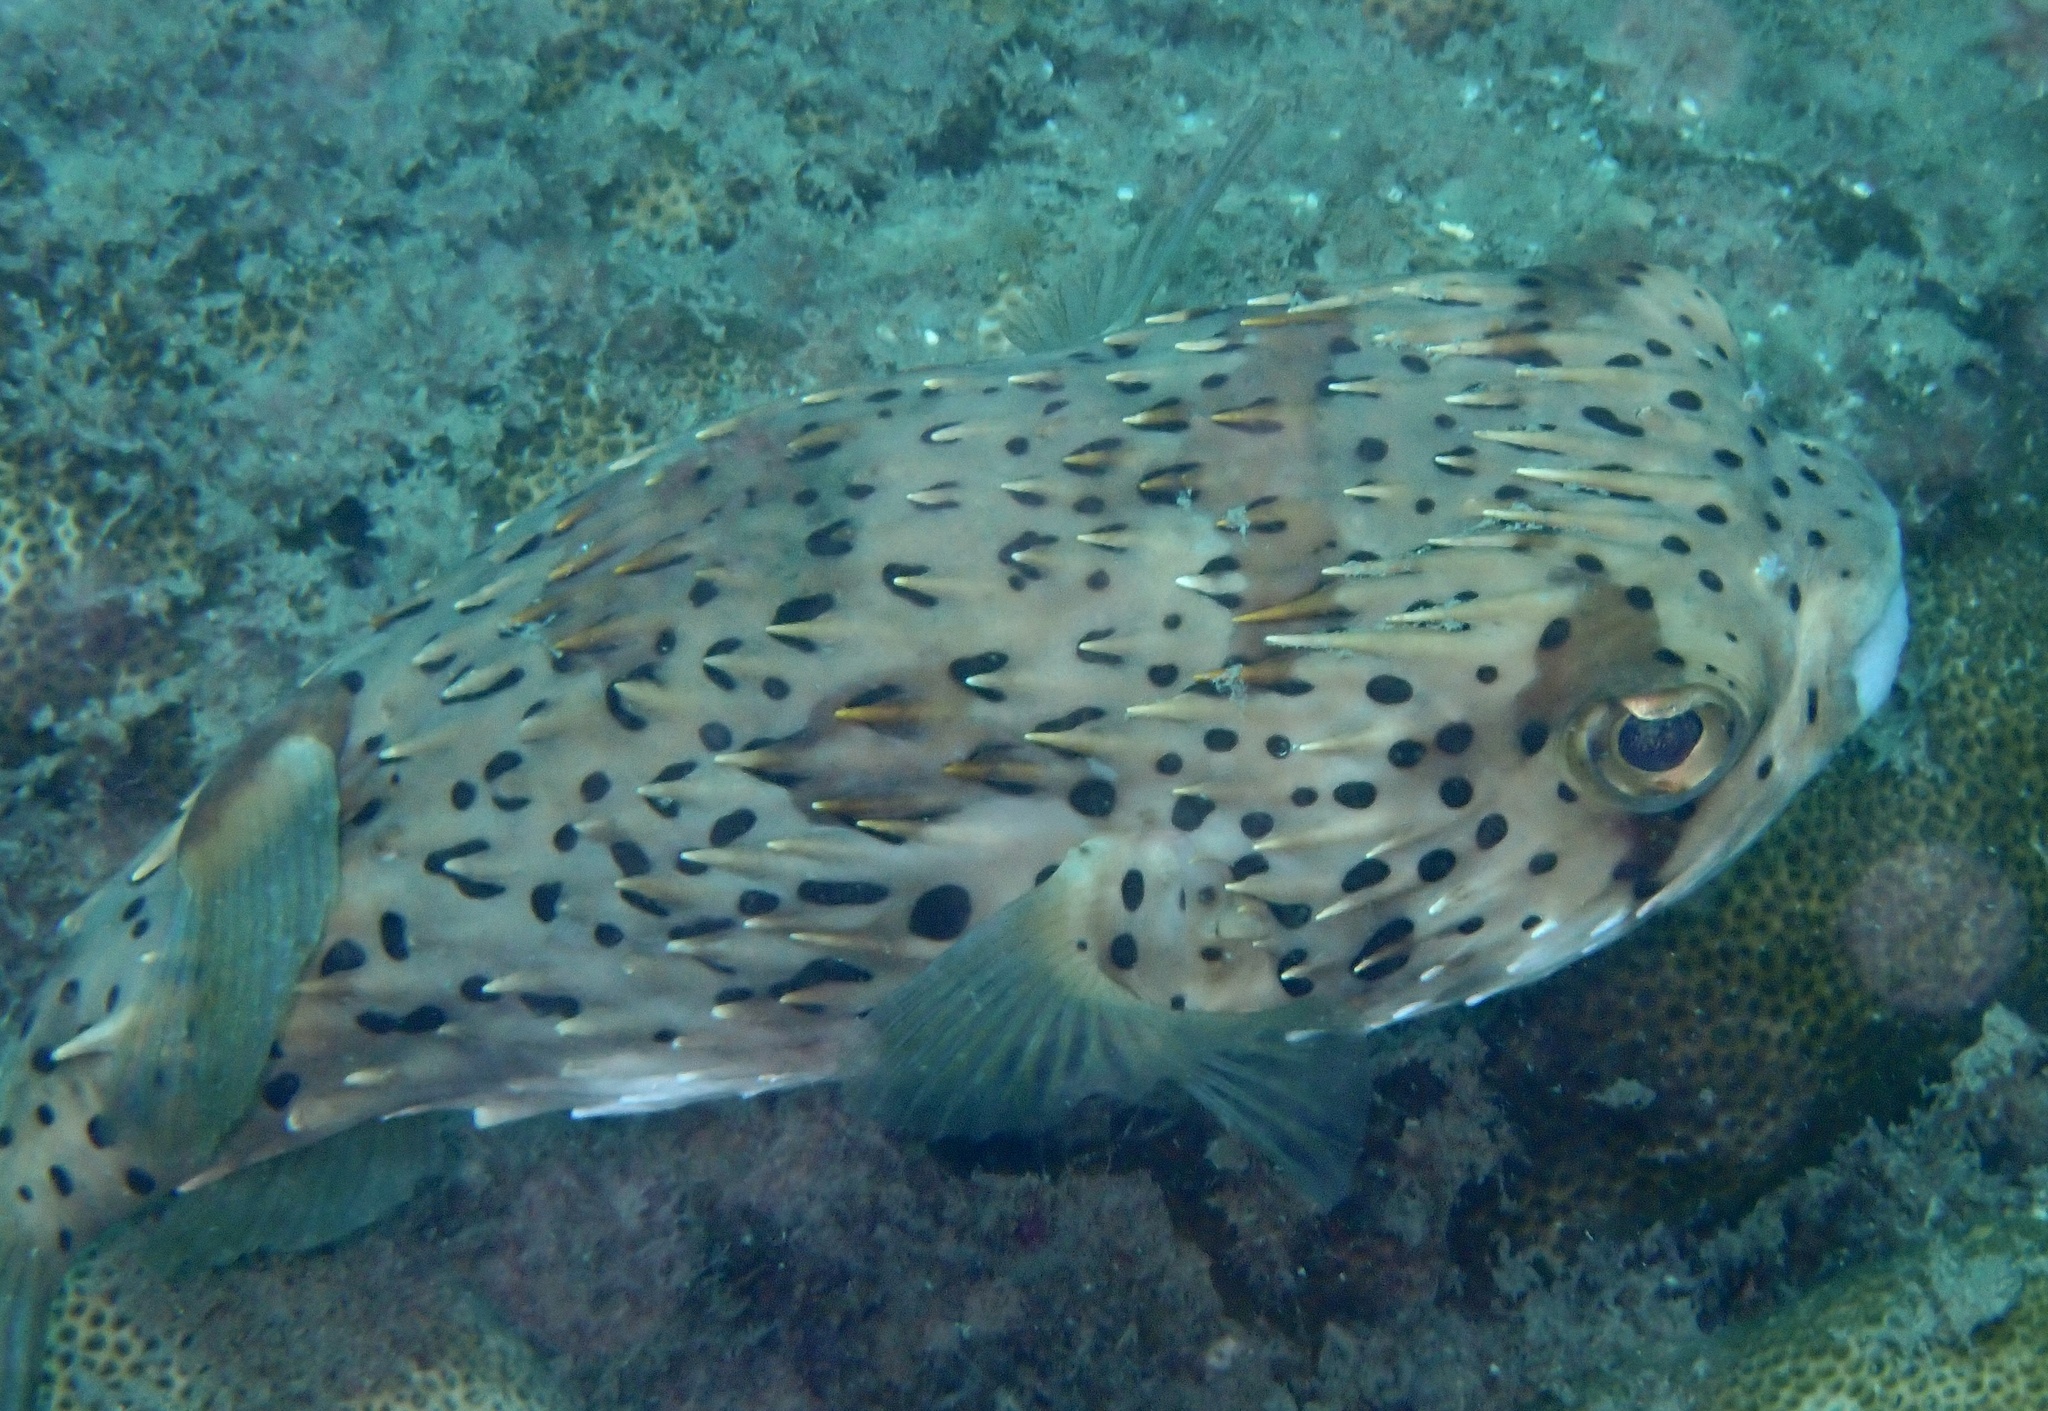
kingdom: Animalia
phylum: Chordata
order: Tetraodontiformes
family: Diodontidae
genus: Diodon
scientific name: Diodon holocanthus
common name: Balloonfish
